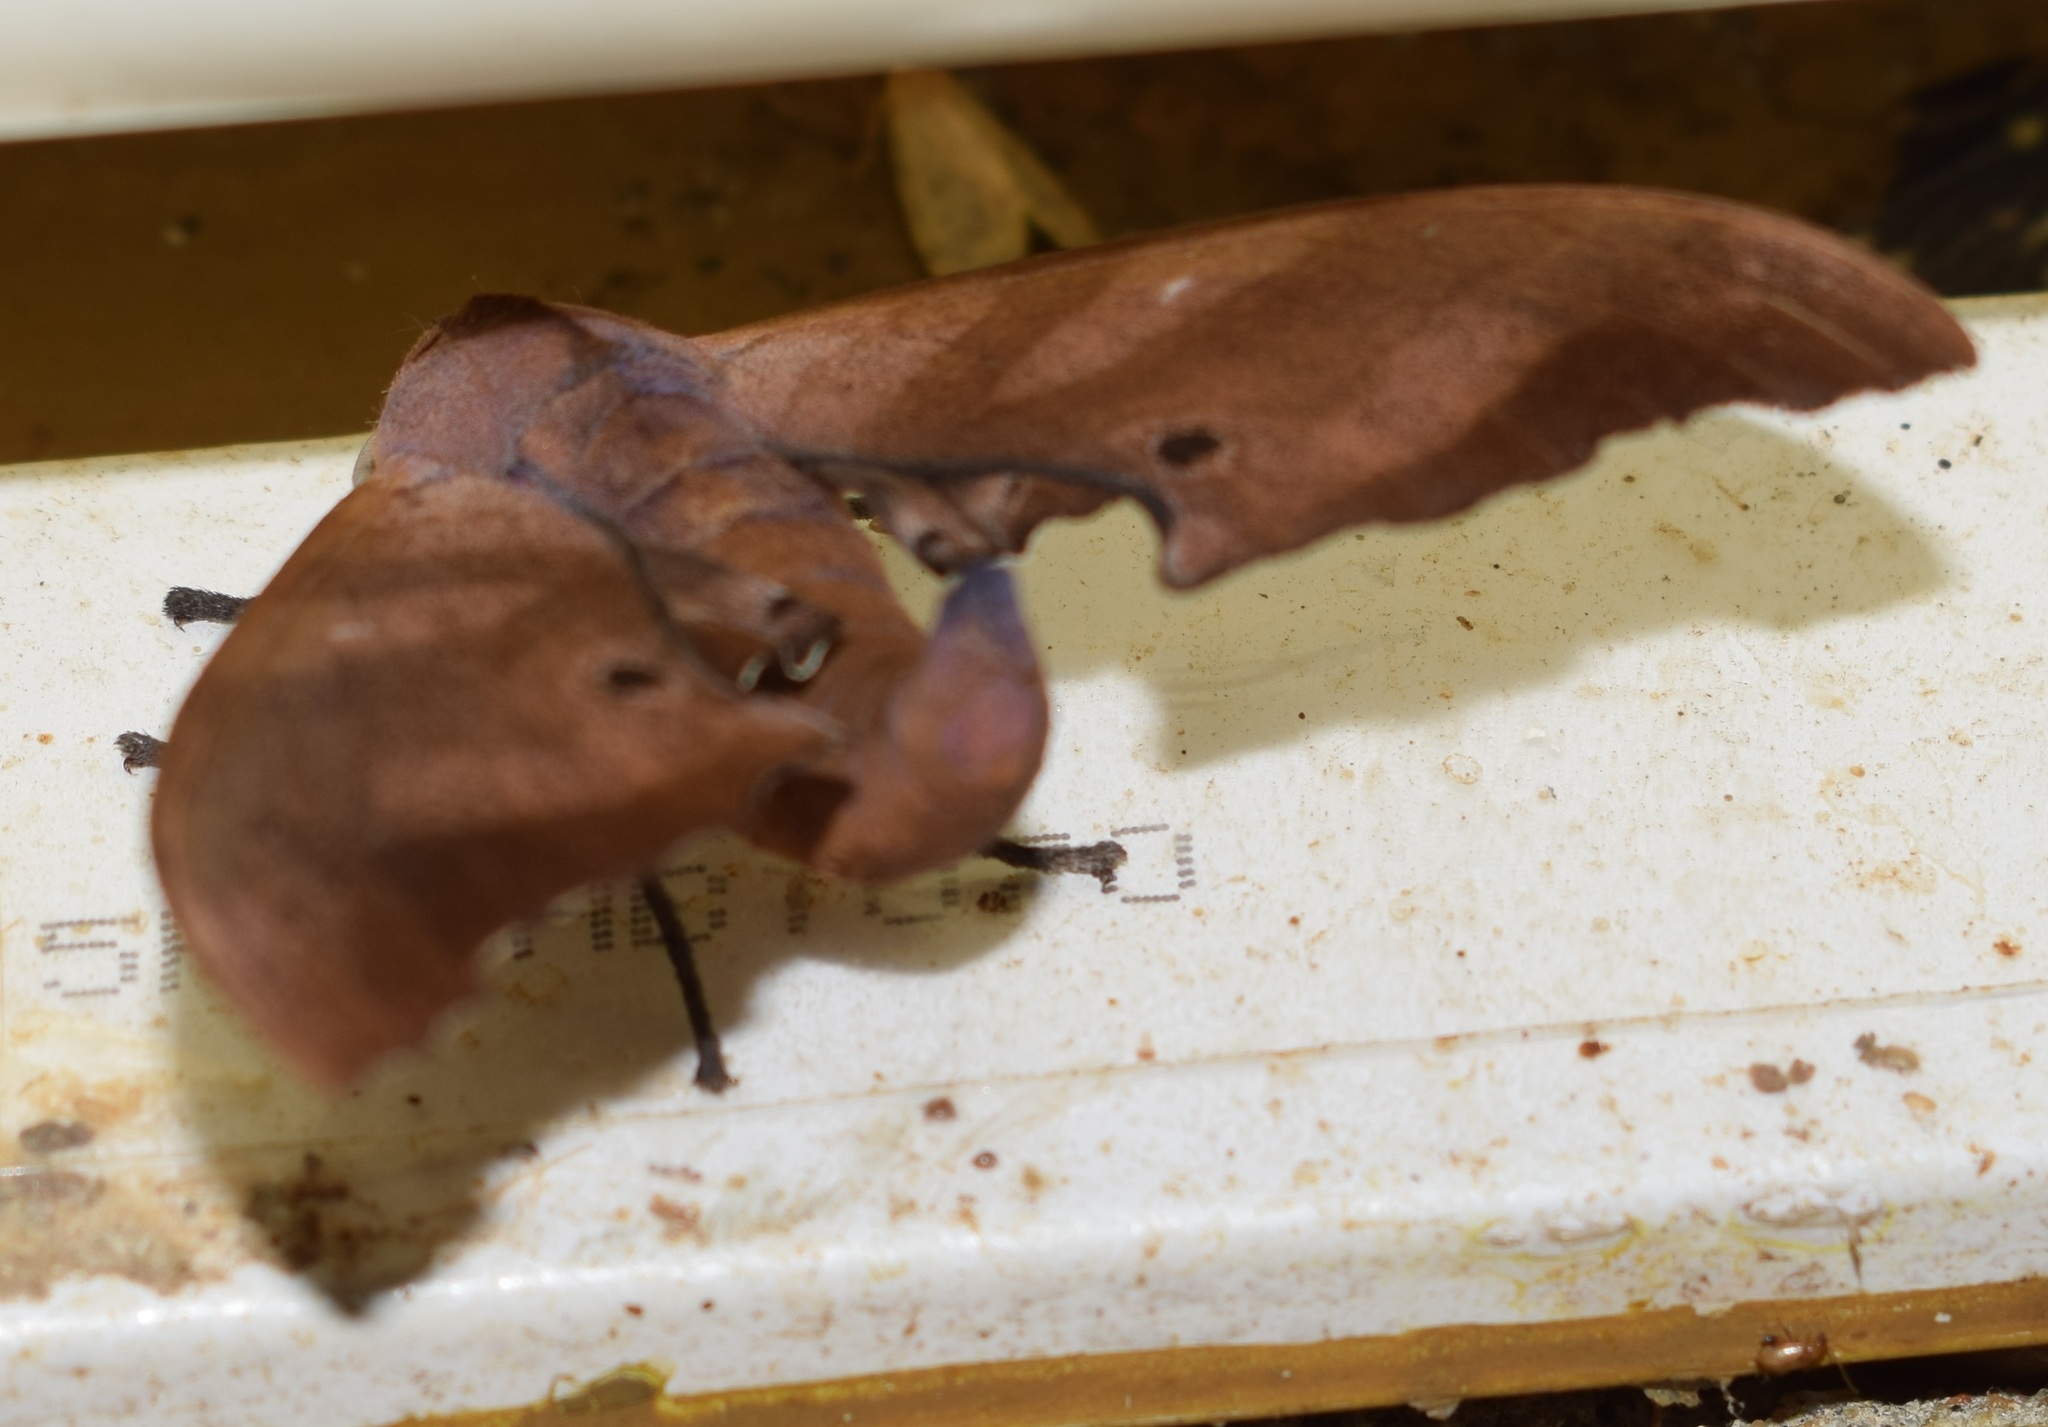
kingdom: Animalia
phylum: Arthropoda
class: Insecta
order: Lepidoptera
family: Sphingidae
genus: Marumba
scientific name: Marumba nympha
